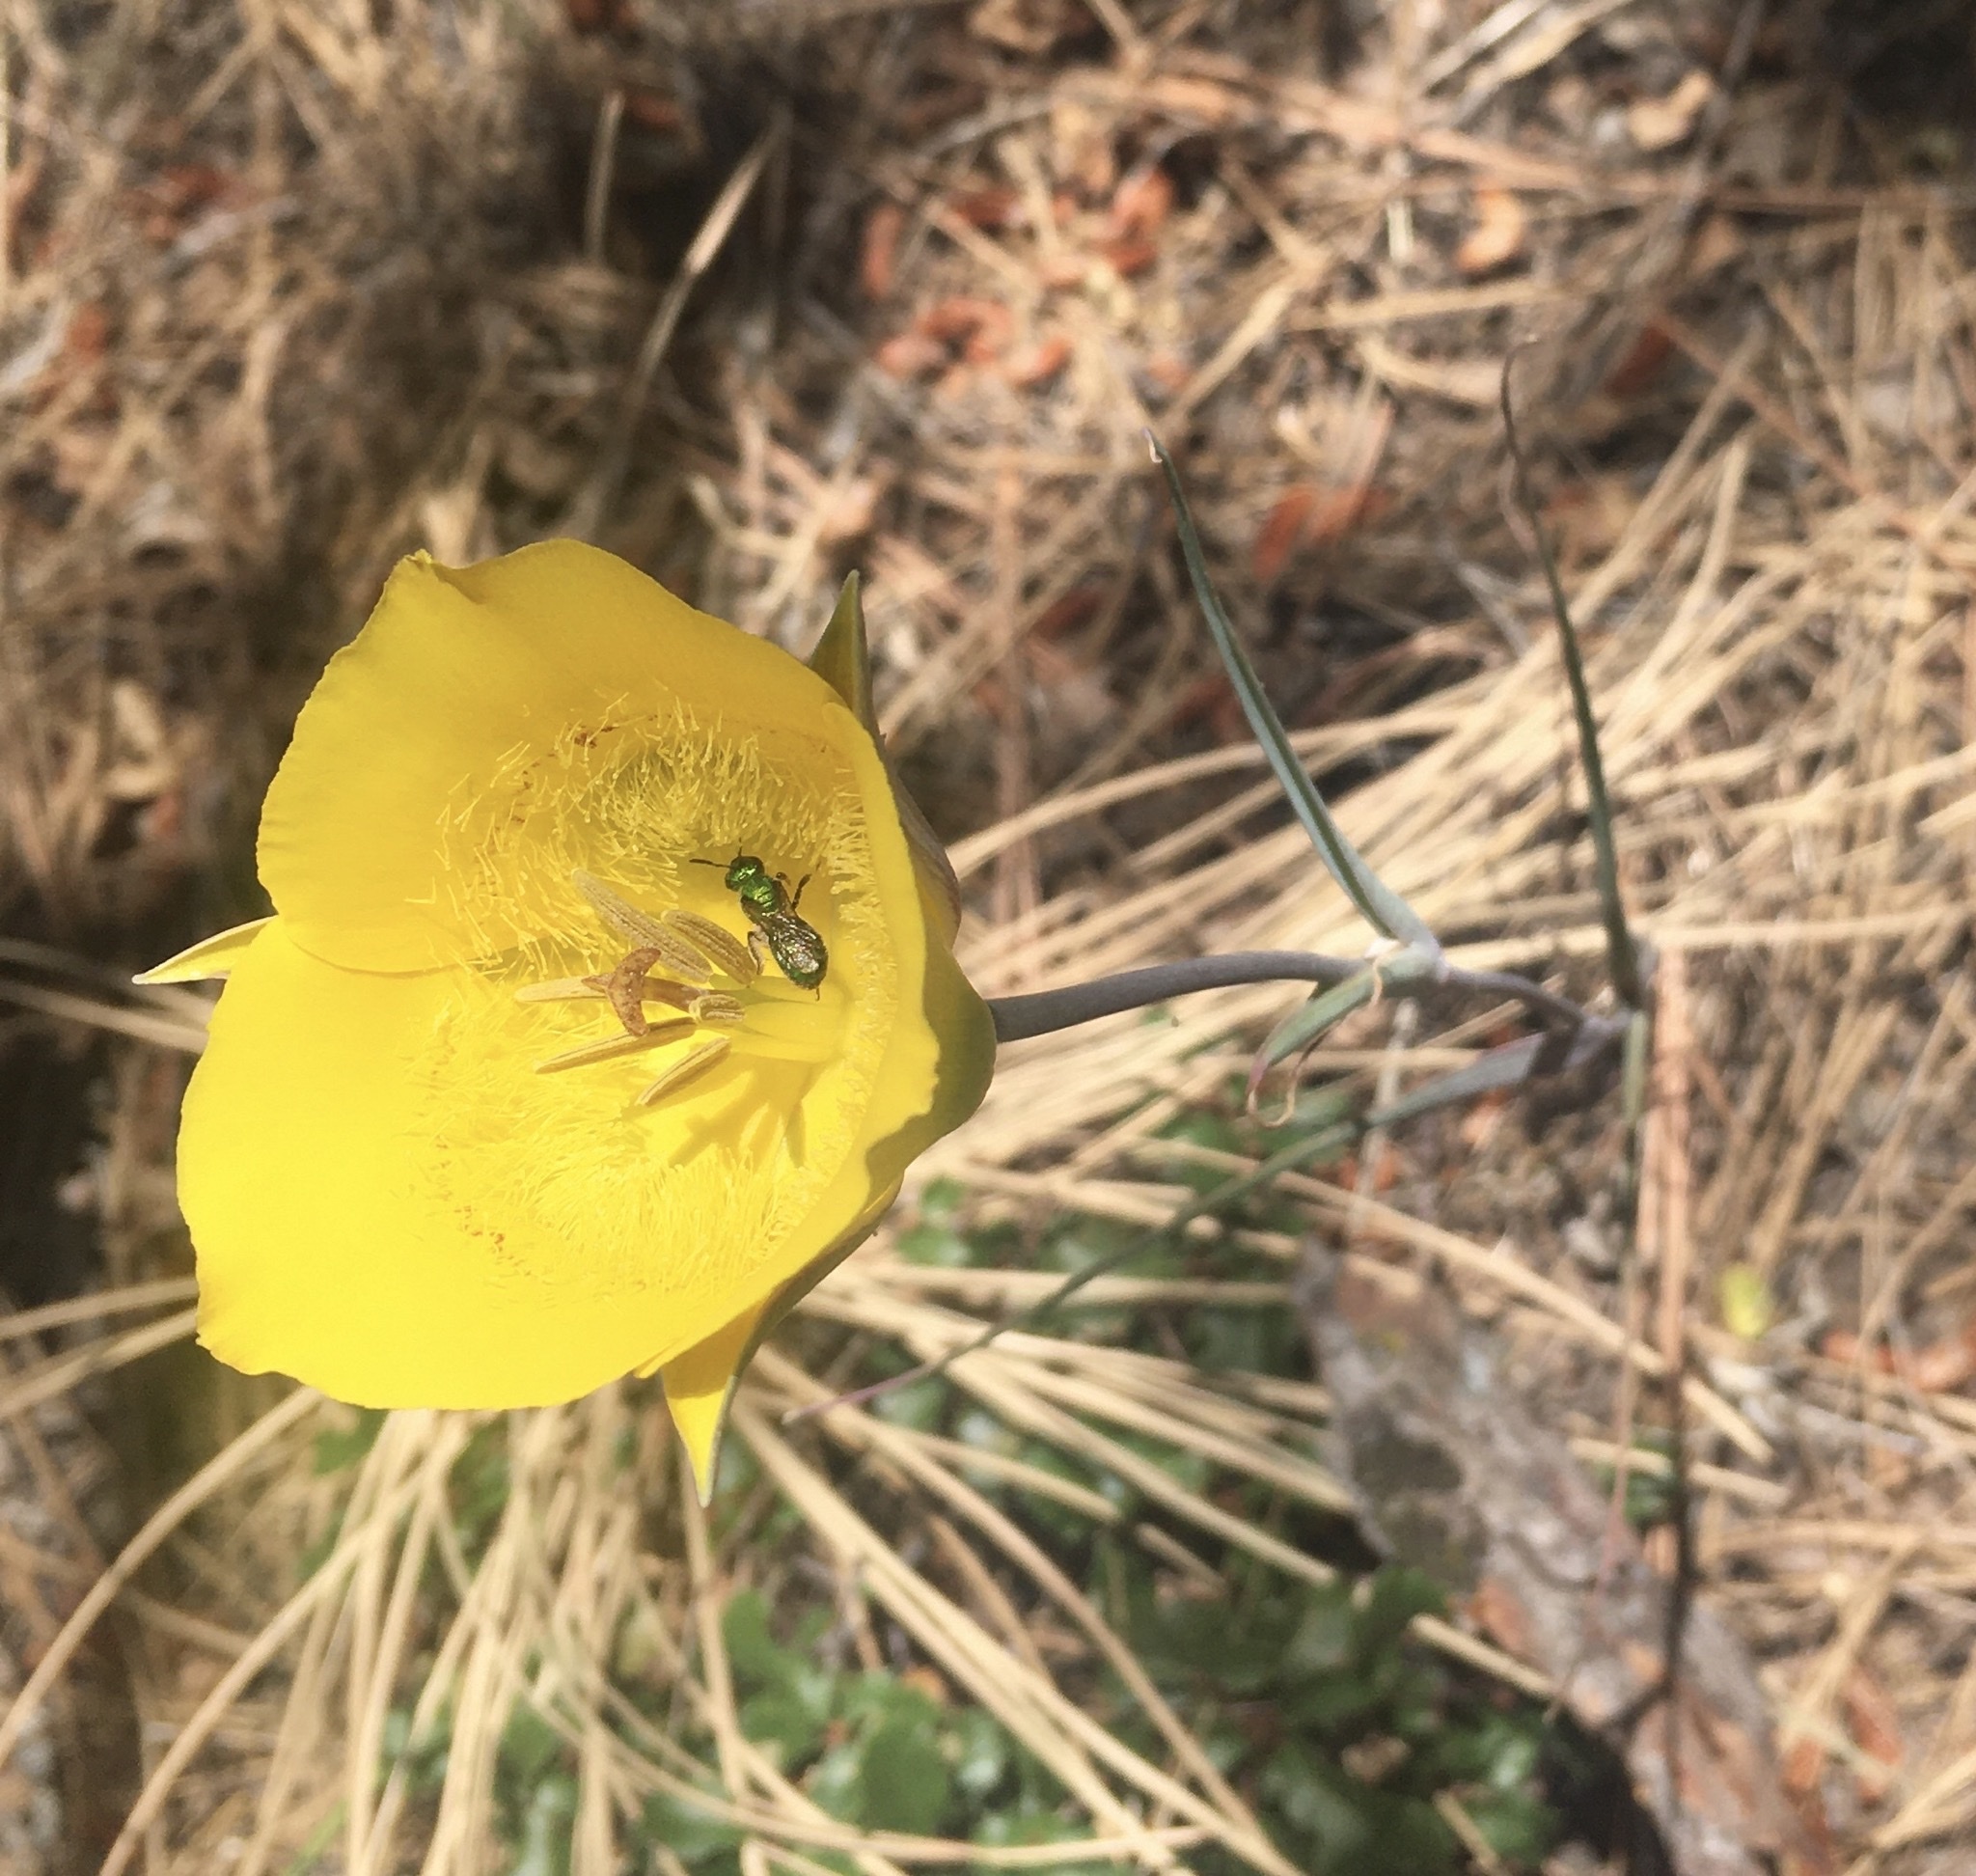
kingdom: Plantae
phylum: Tracheophyta
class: Liliopsida
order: Liliales
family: Liliaceae
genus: Calochortus
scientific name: Calochortus clavatus
